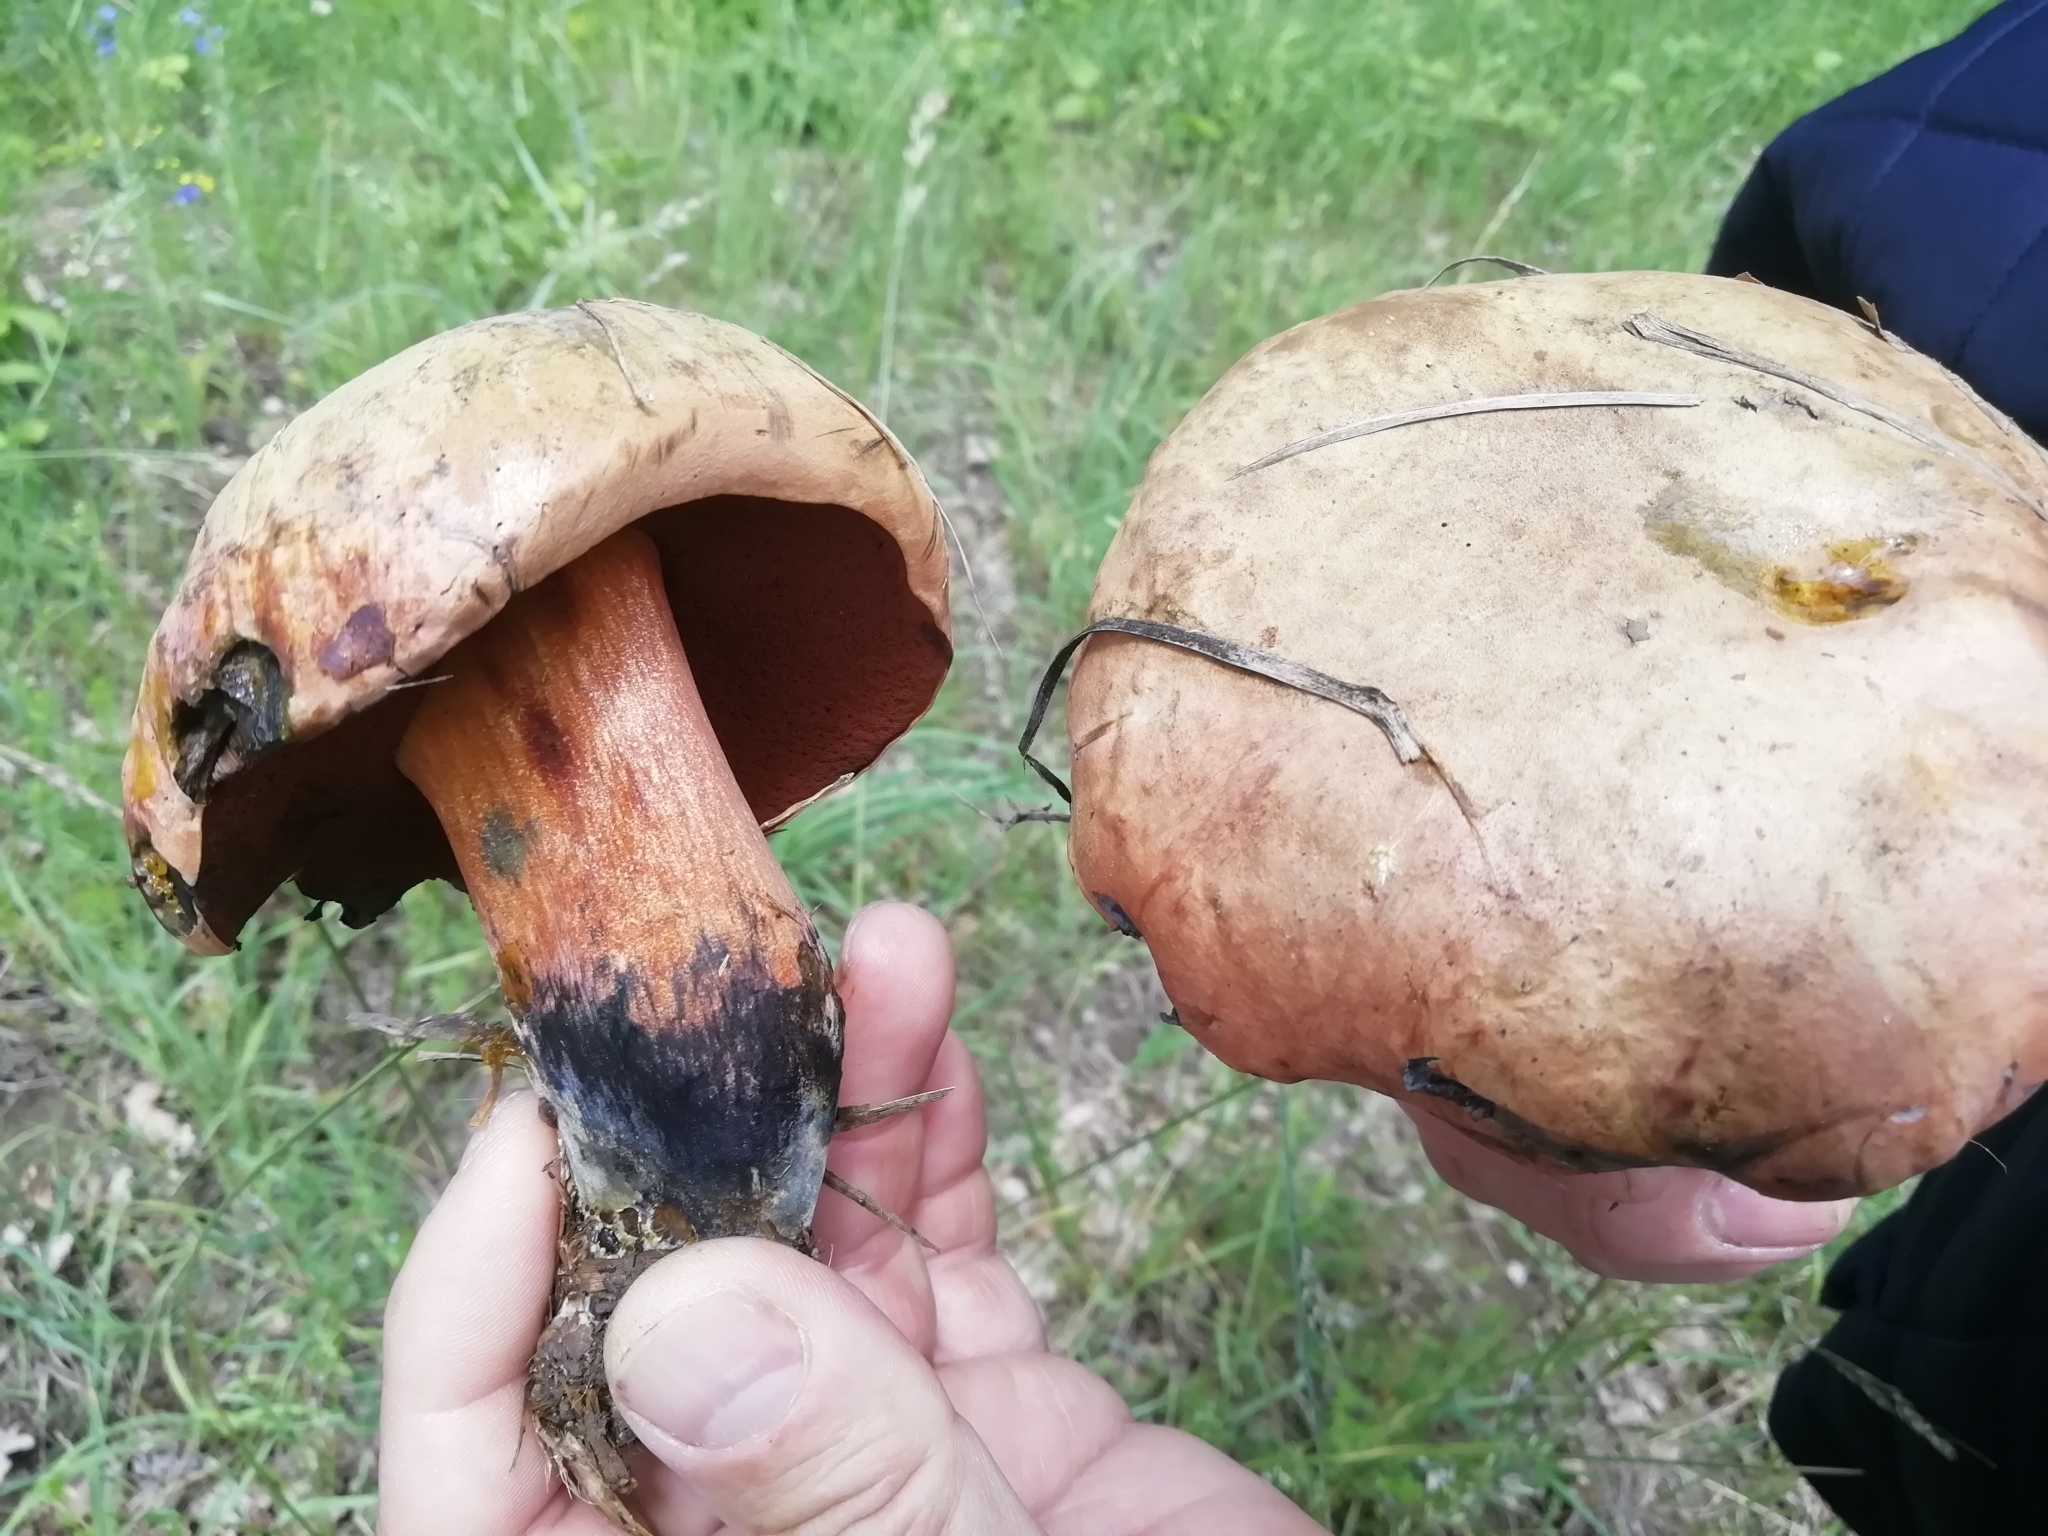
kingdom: Fungi
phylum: Basidiomycota
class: Agaricomycetes
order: Boletales
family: Boletaceae
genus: Suillellus
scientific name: Suillellus luridus
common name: Lurid bolete
